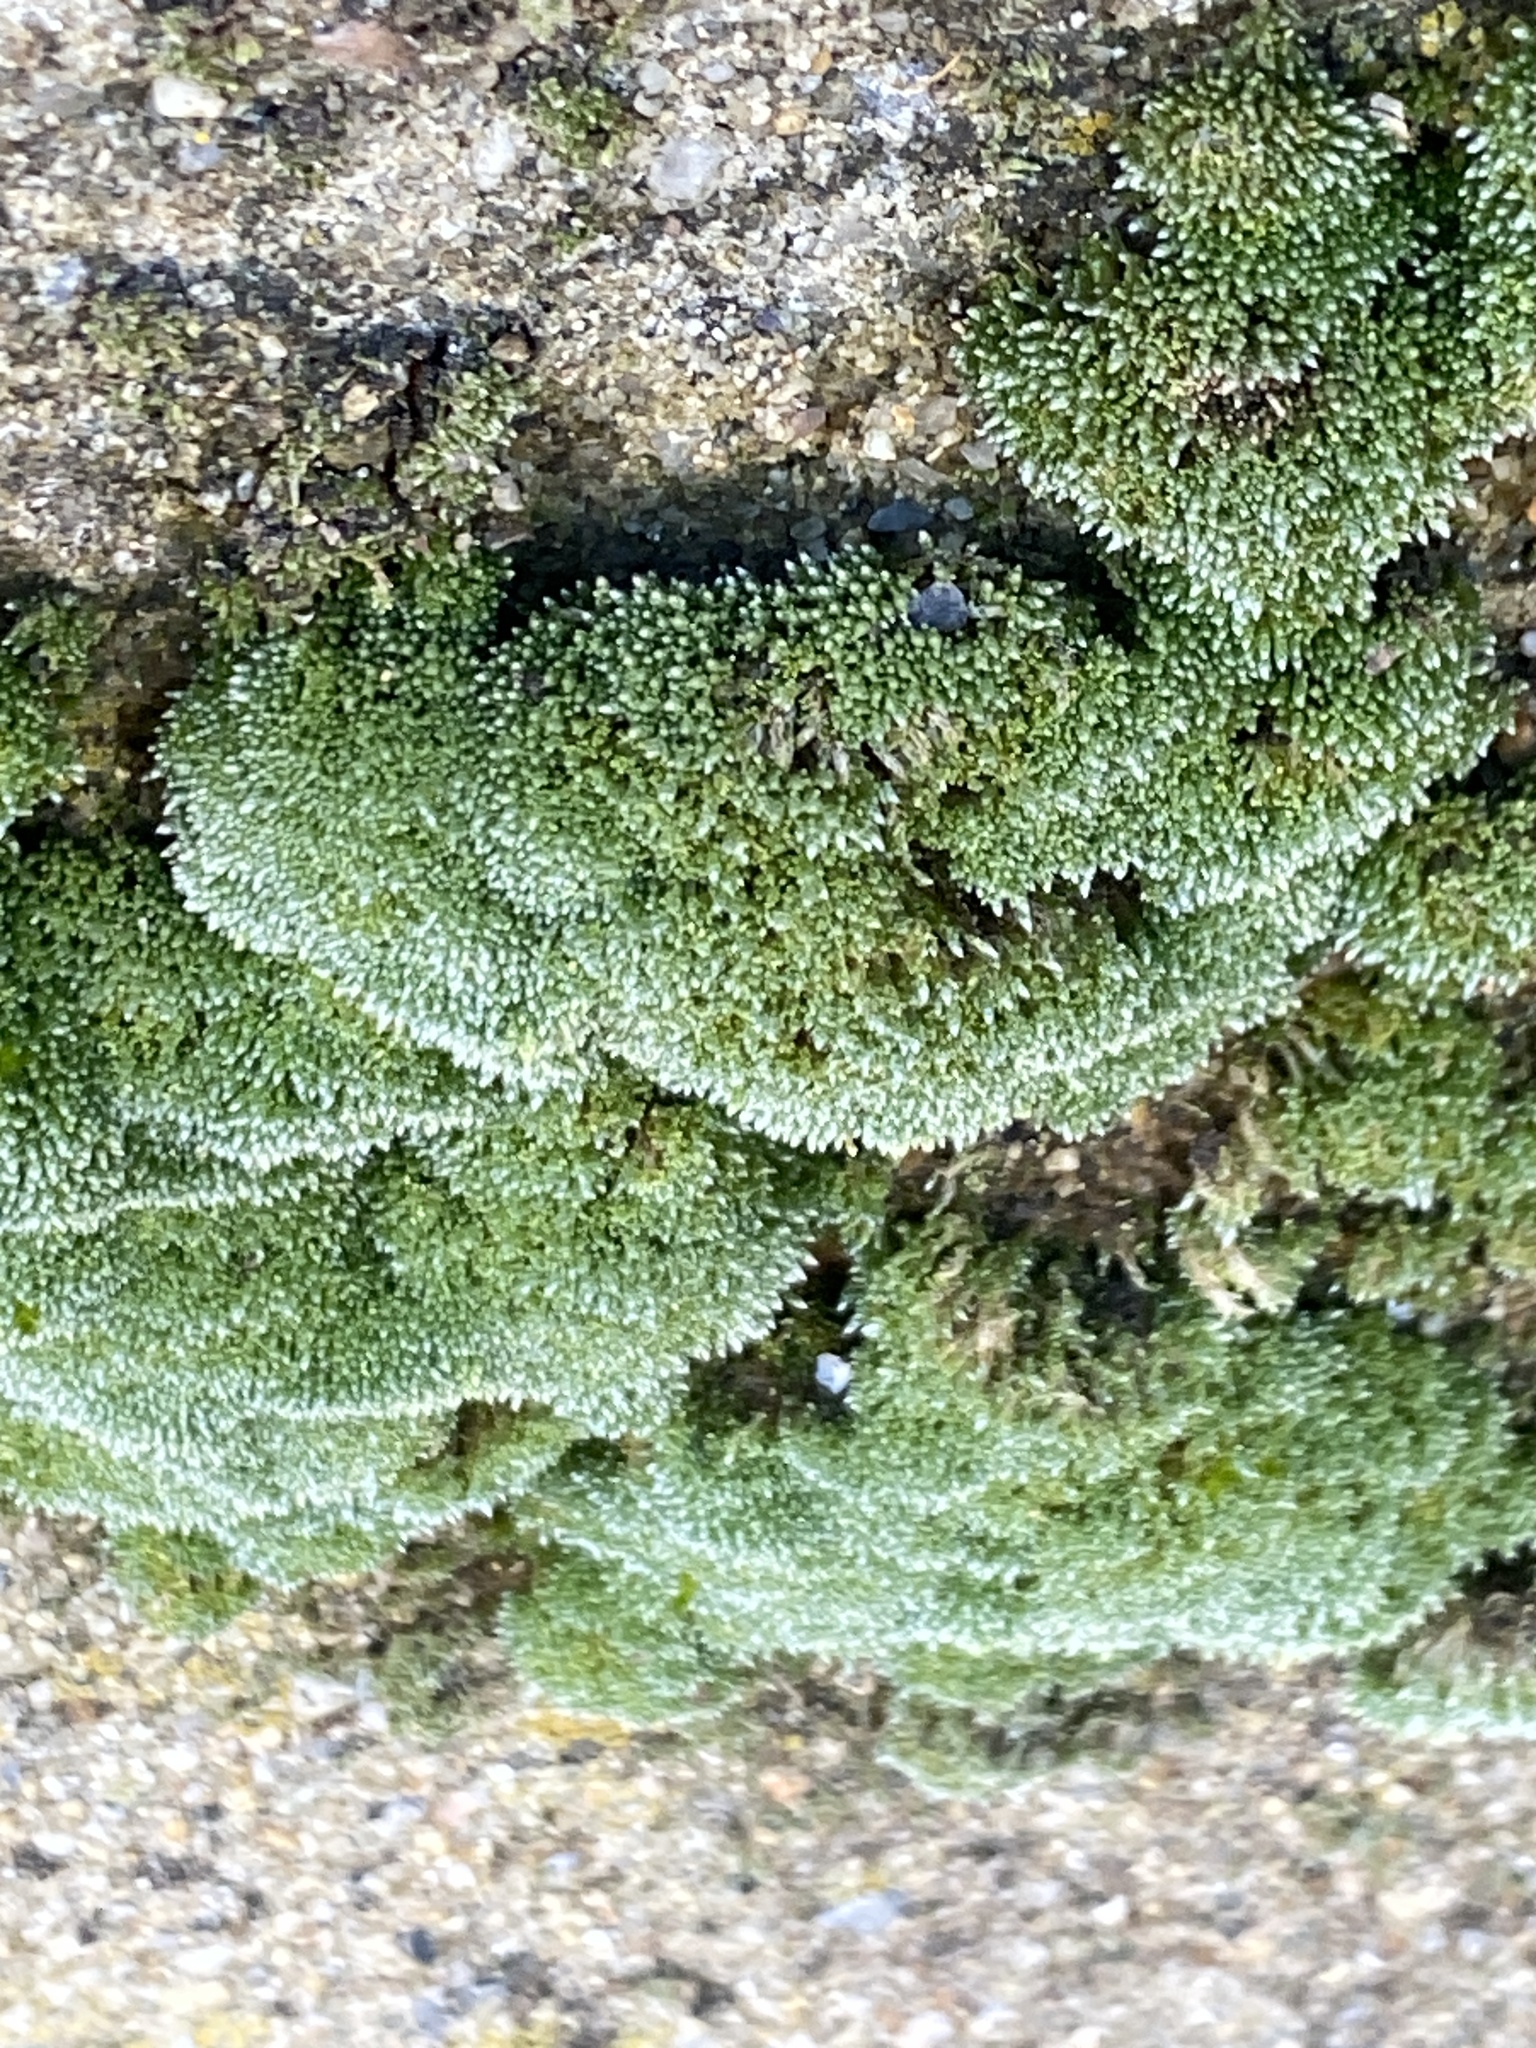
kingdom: Plantae
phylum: Bryophyta
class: Bryopsida
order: Bryales
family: Bryaceae
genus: Bryum
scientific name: Bryum argenteum
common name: Silver-moss
